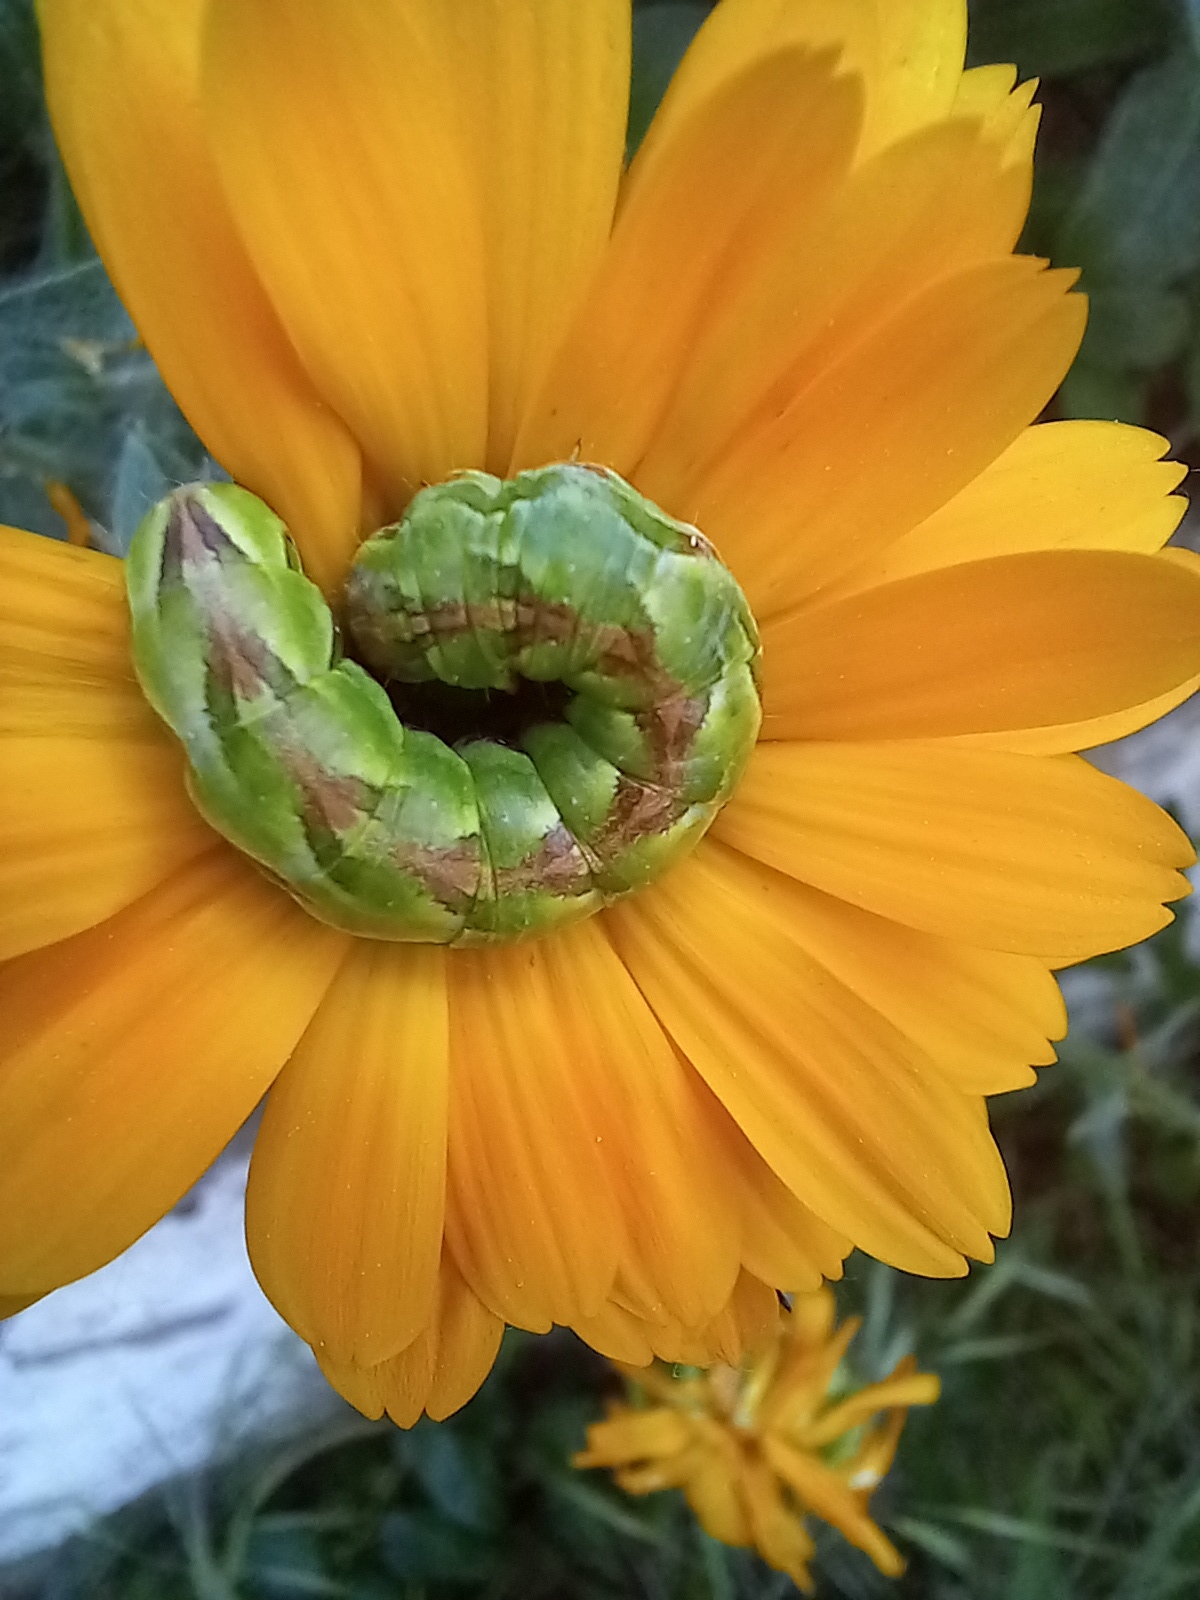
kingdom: Animalia
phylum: Arthropoda
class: Insecta
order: Lepidoptera
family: Noctuidae
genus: Cucullia
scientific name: Cucullia calendulae
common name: Marigold shark
